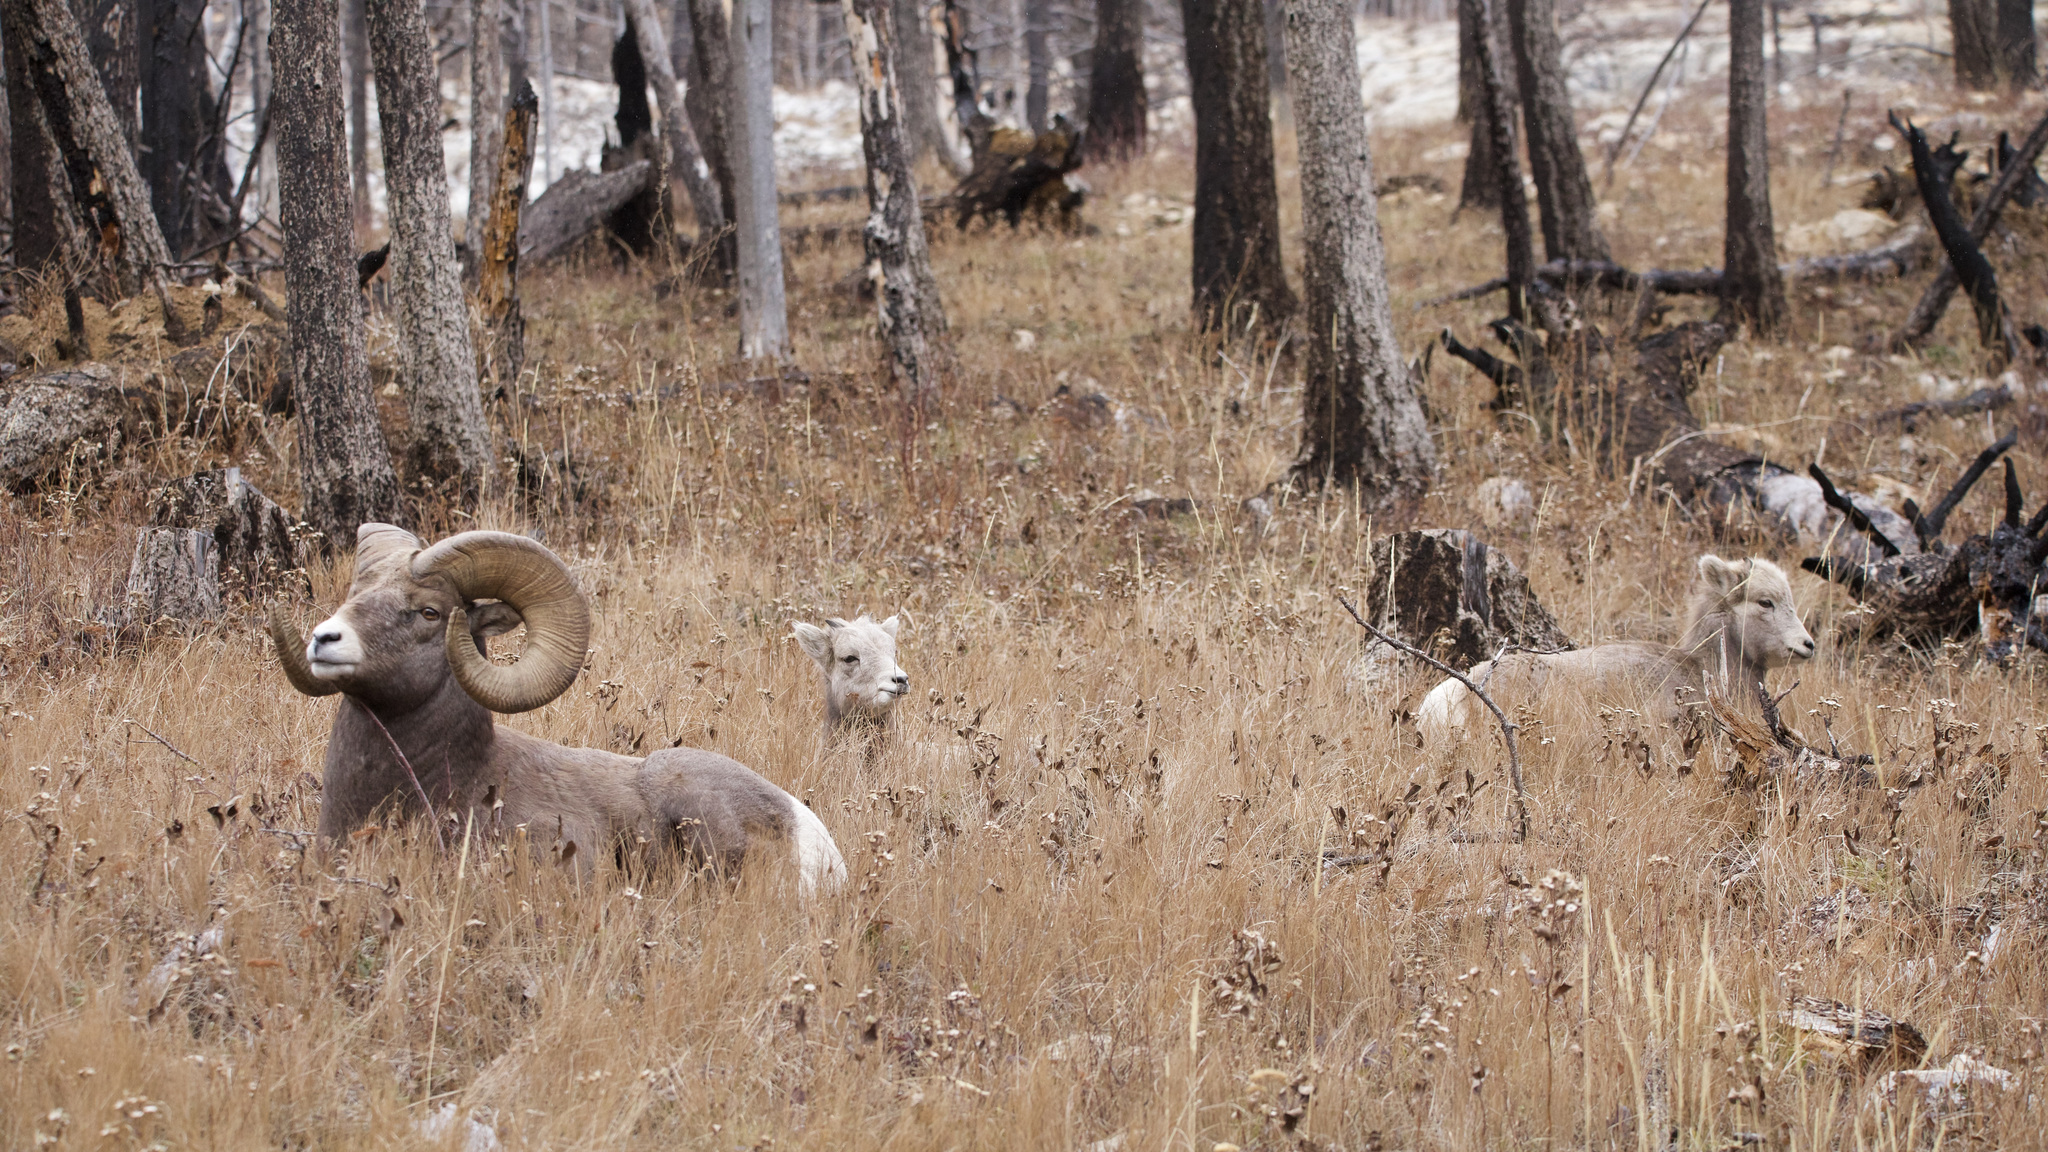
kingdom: Animalia
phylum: Chordata
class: Mammalia
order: Artiodactyla
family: Bovidae
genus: Ovis
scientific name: Ovis canadensis
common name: Bighorn sheep
